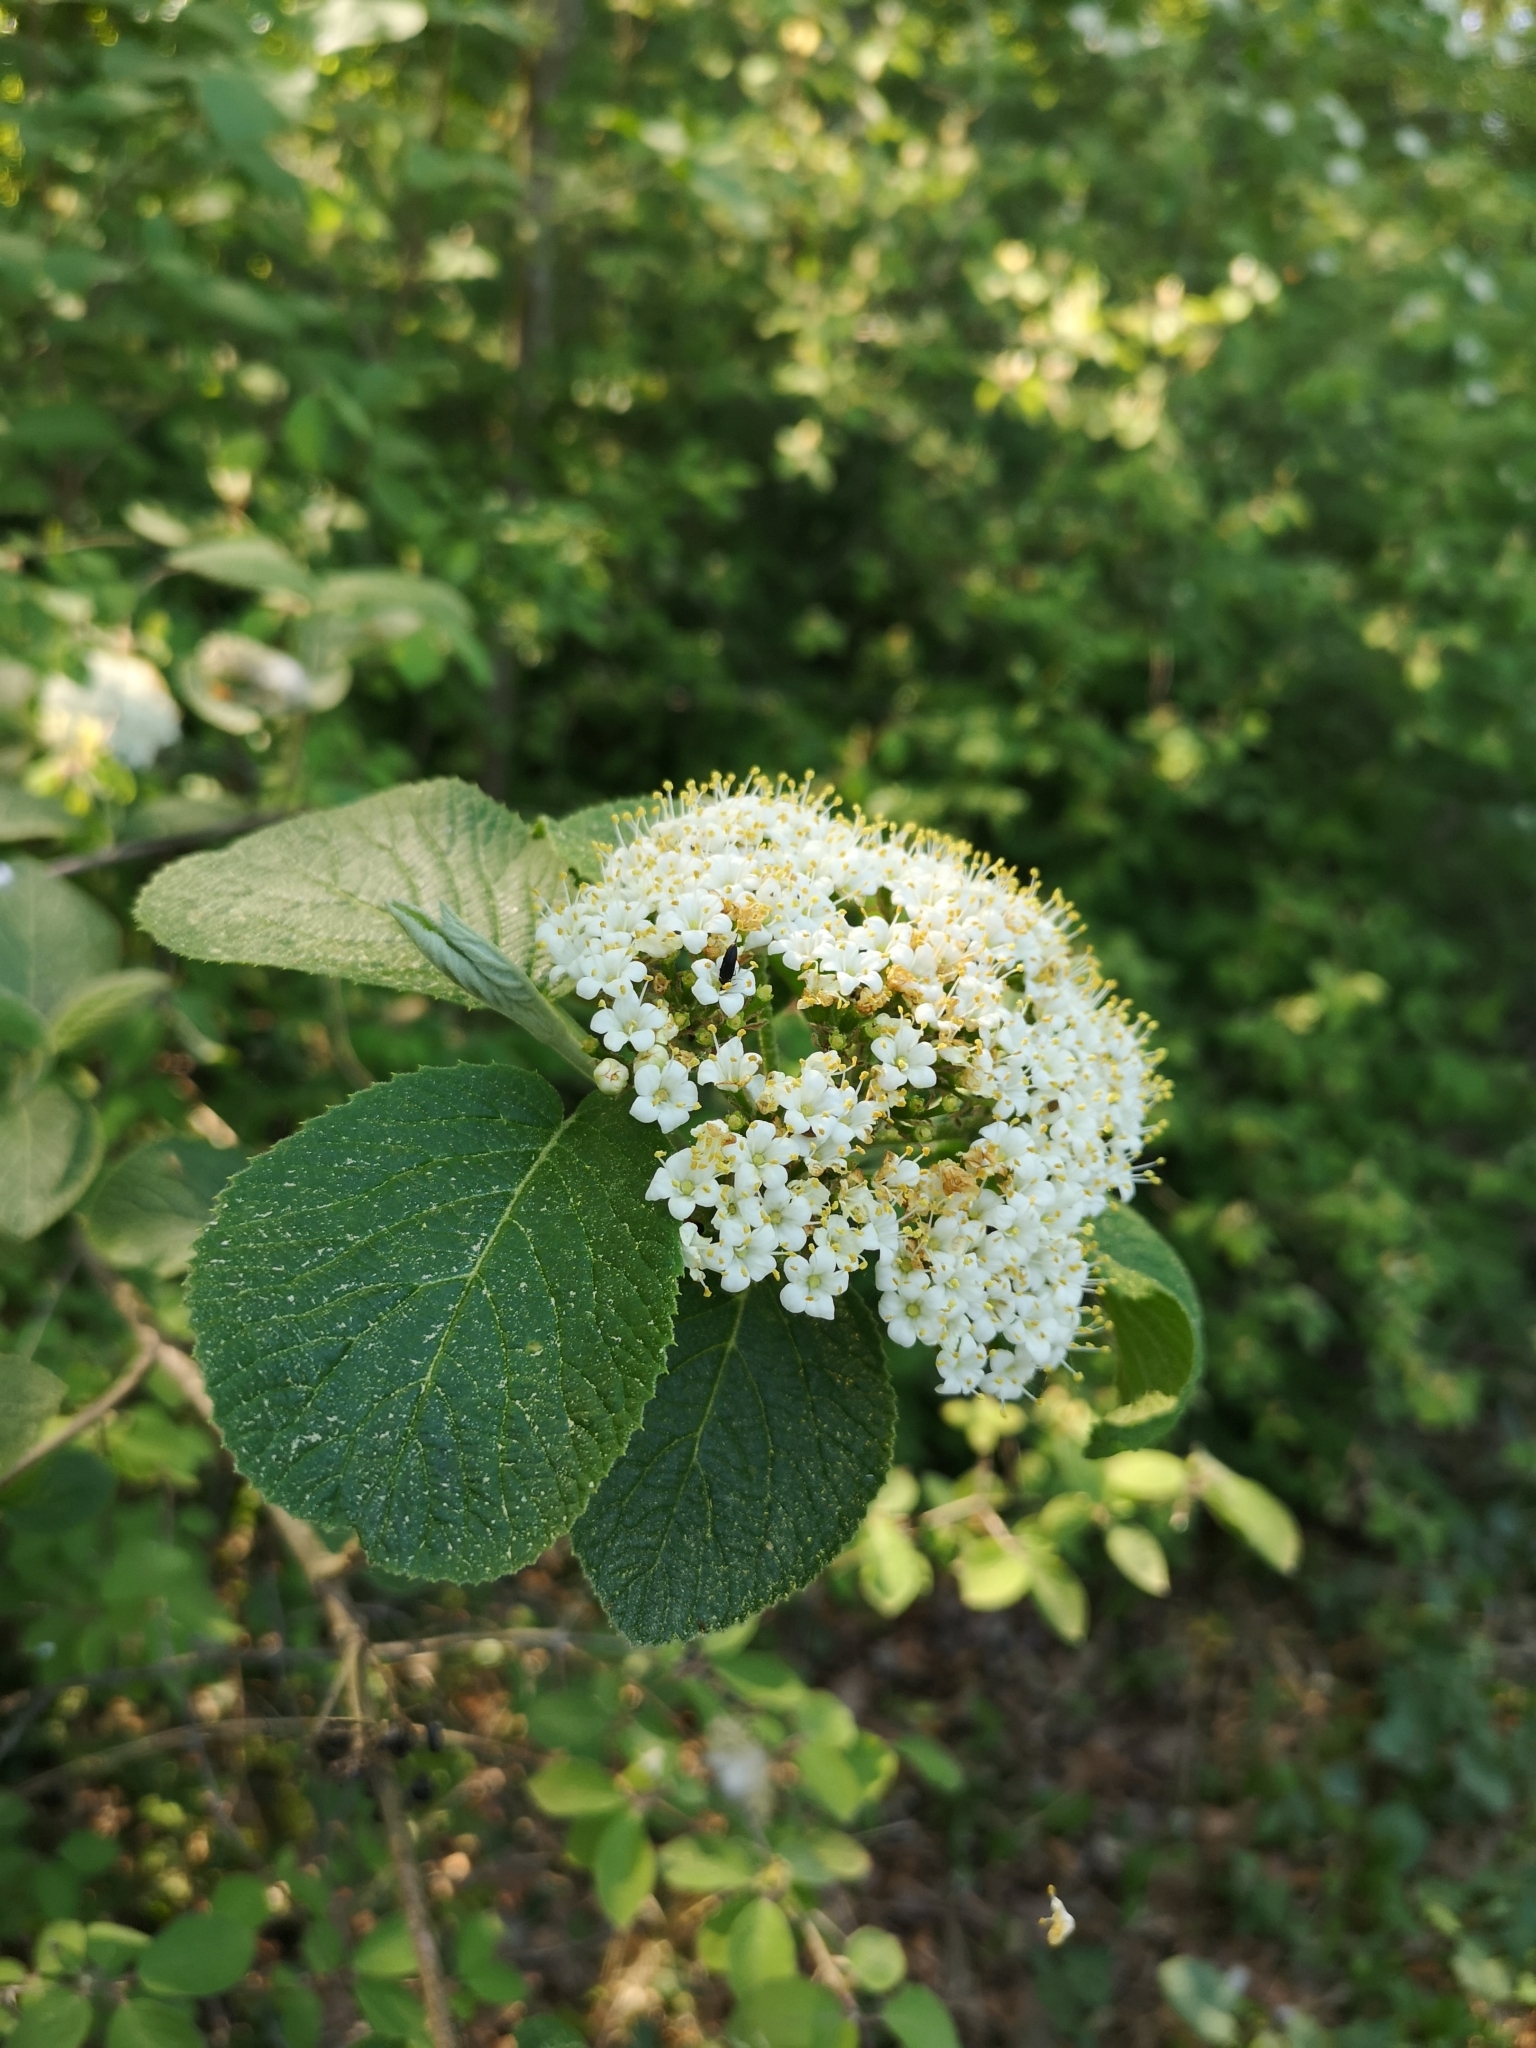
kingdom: Plantae
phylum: Tracheophyta
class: Magnoliopsida
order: Dipsacales
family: Viburnaceae
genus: Viburnum
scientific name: Viburnum lantana
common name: Wayfaring tree
